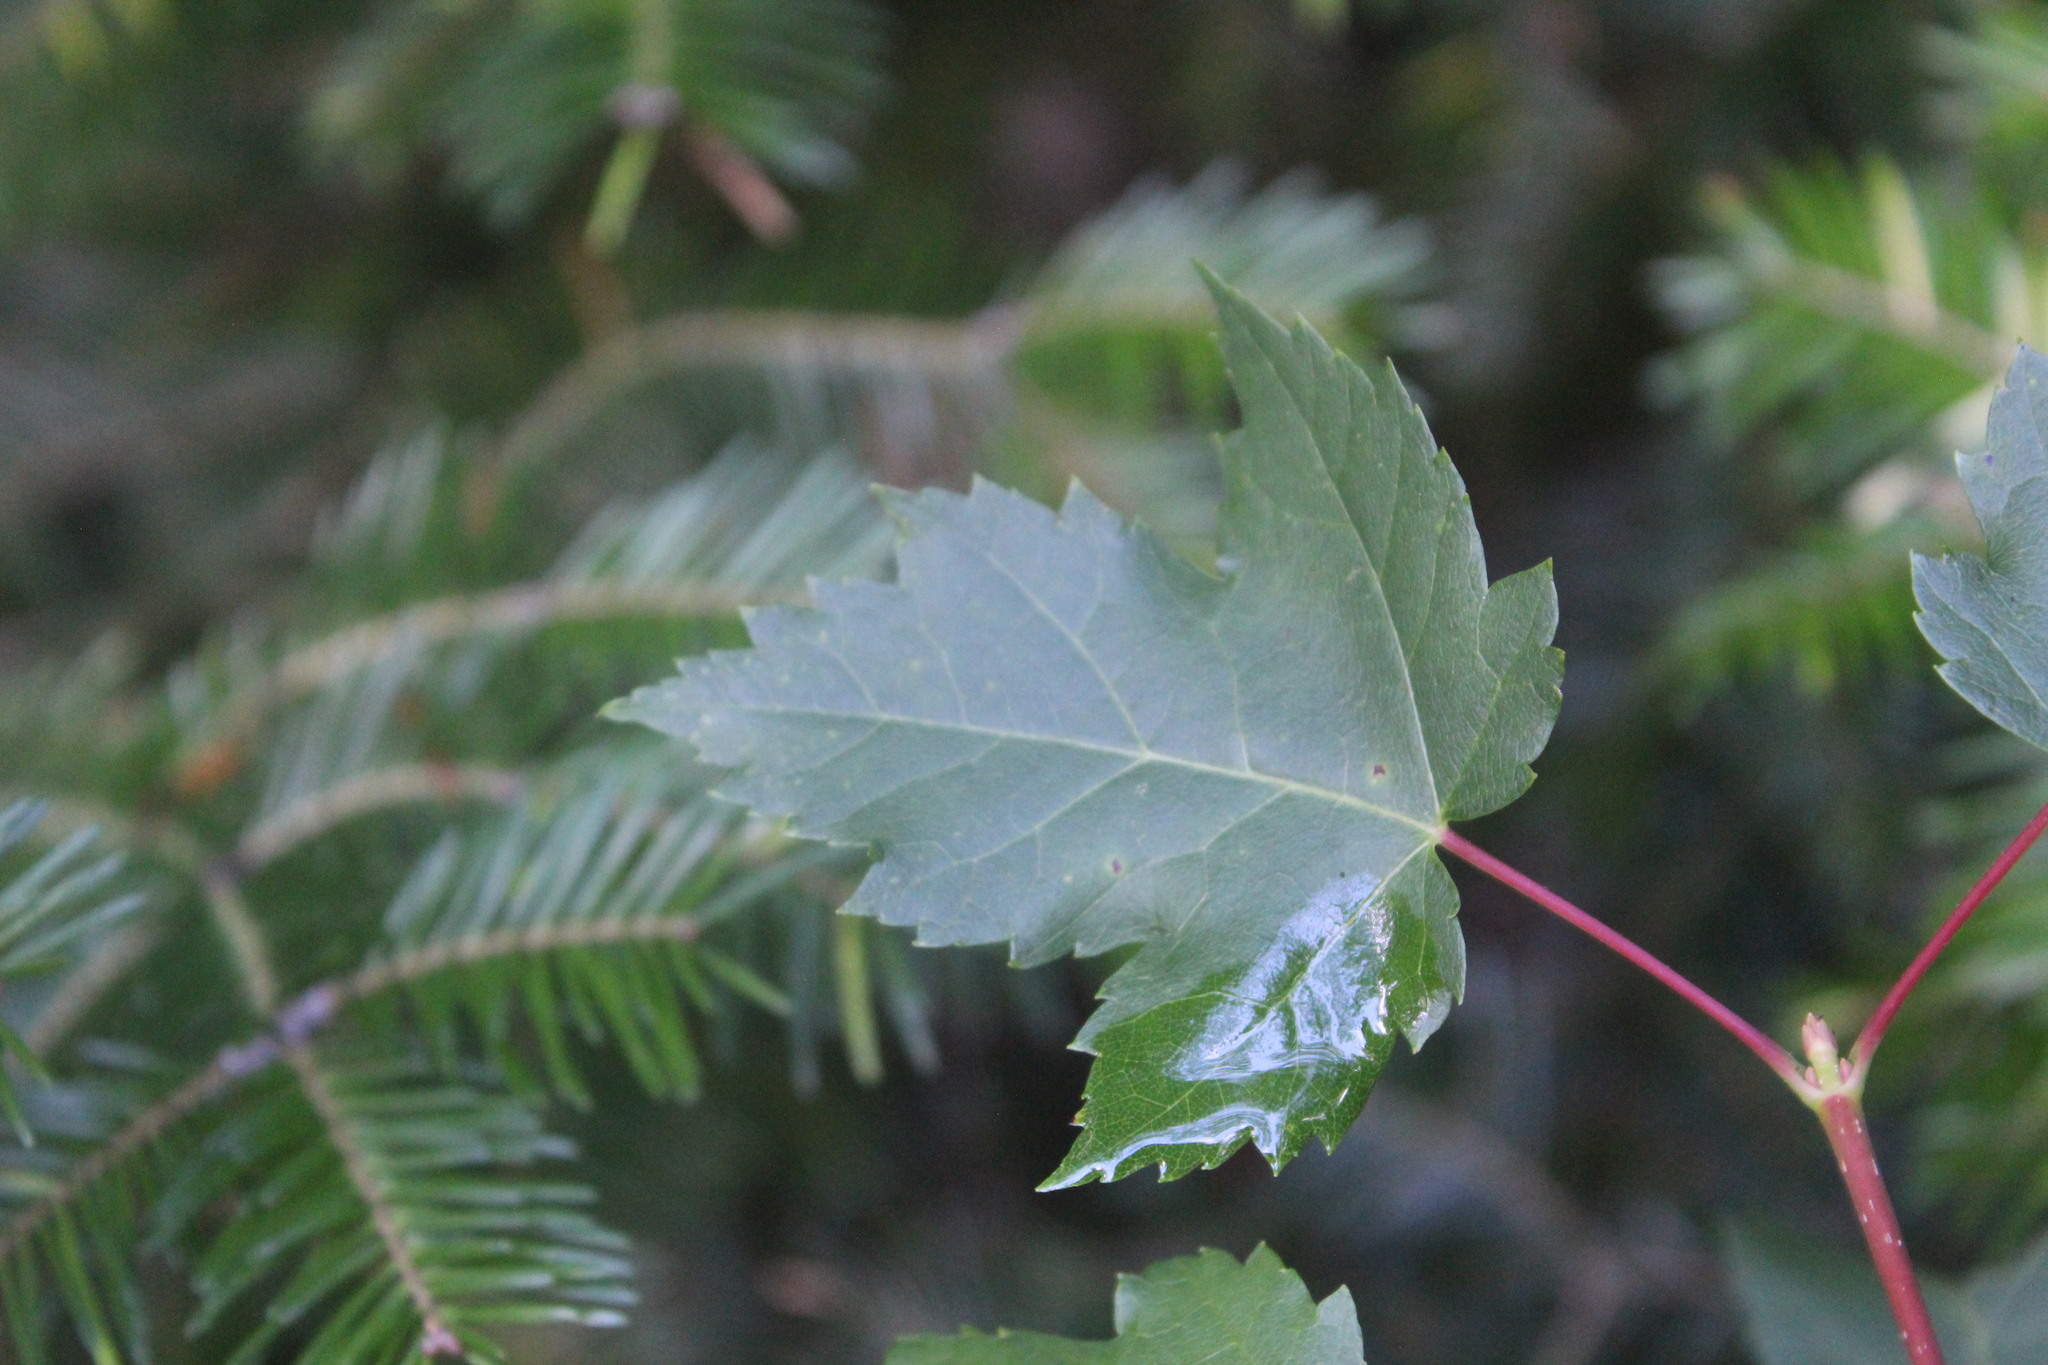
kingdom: Plantae
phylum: Tracheophyta
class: Magnoliopsida
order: Sapindales
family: Sapindaceae
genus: Acer
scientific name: Acer rubrum
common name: Red maple
